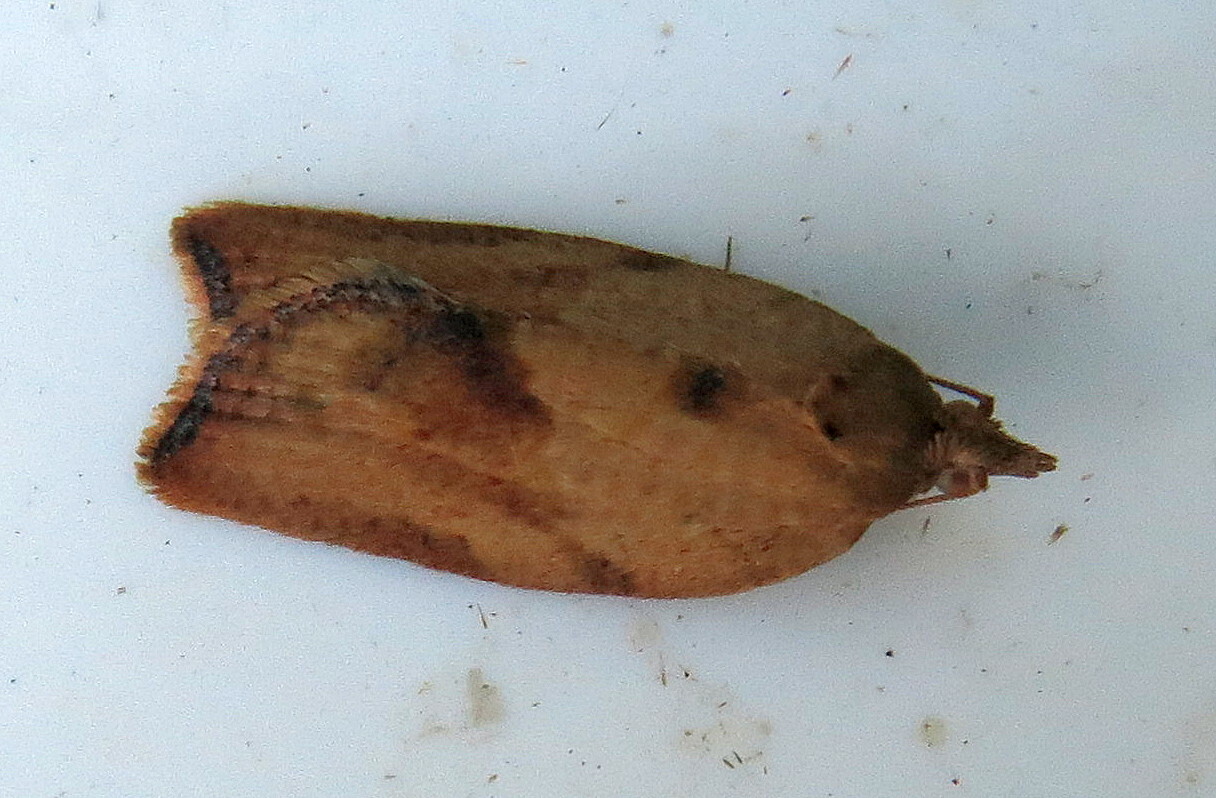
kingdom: Animalia
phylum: Arthropoda
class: Insecta
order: Lepidoptera
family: Tortricidae
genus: Epiphyas
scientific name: Epiphyas postvittana
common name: Light brown apple moth
